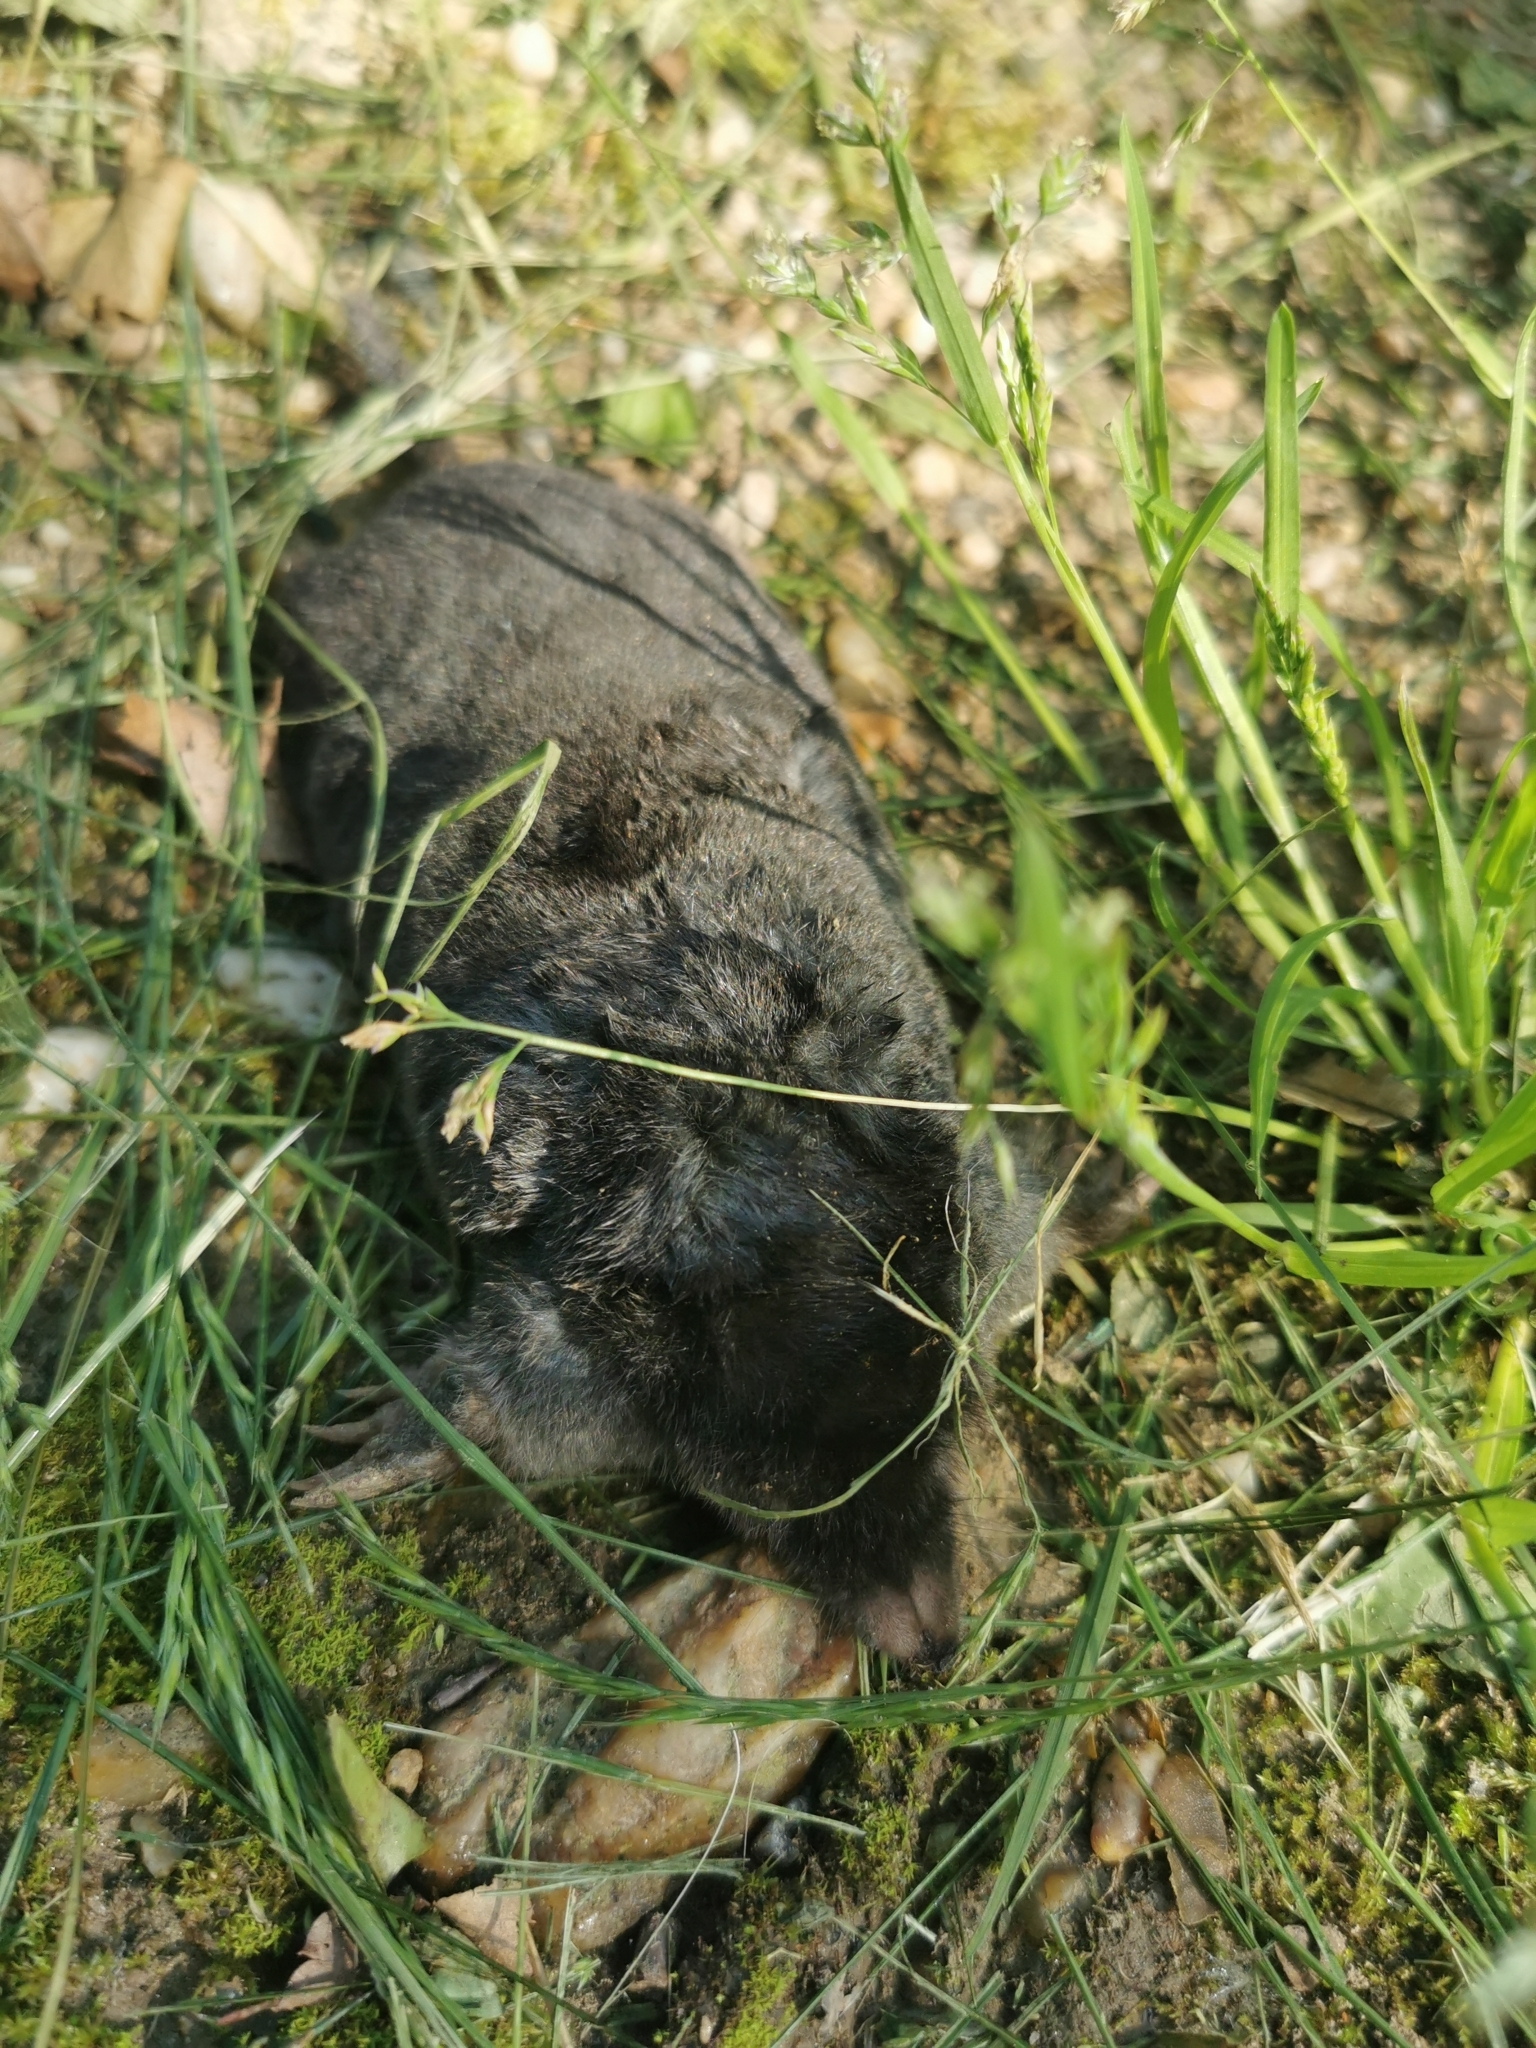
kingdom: Animalia
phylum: Chordata
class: Mammalia
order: Soricomorpha
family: Talpidae
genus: Talpa
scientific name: Talpa europaea
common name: European mole
